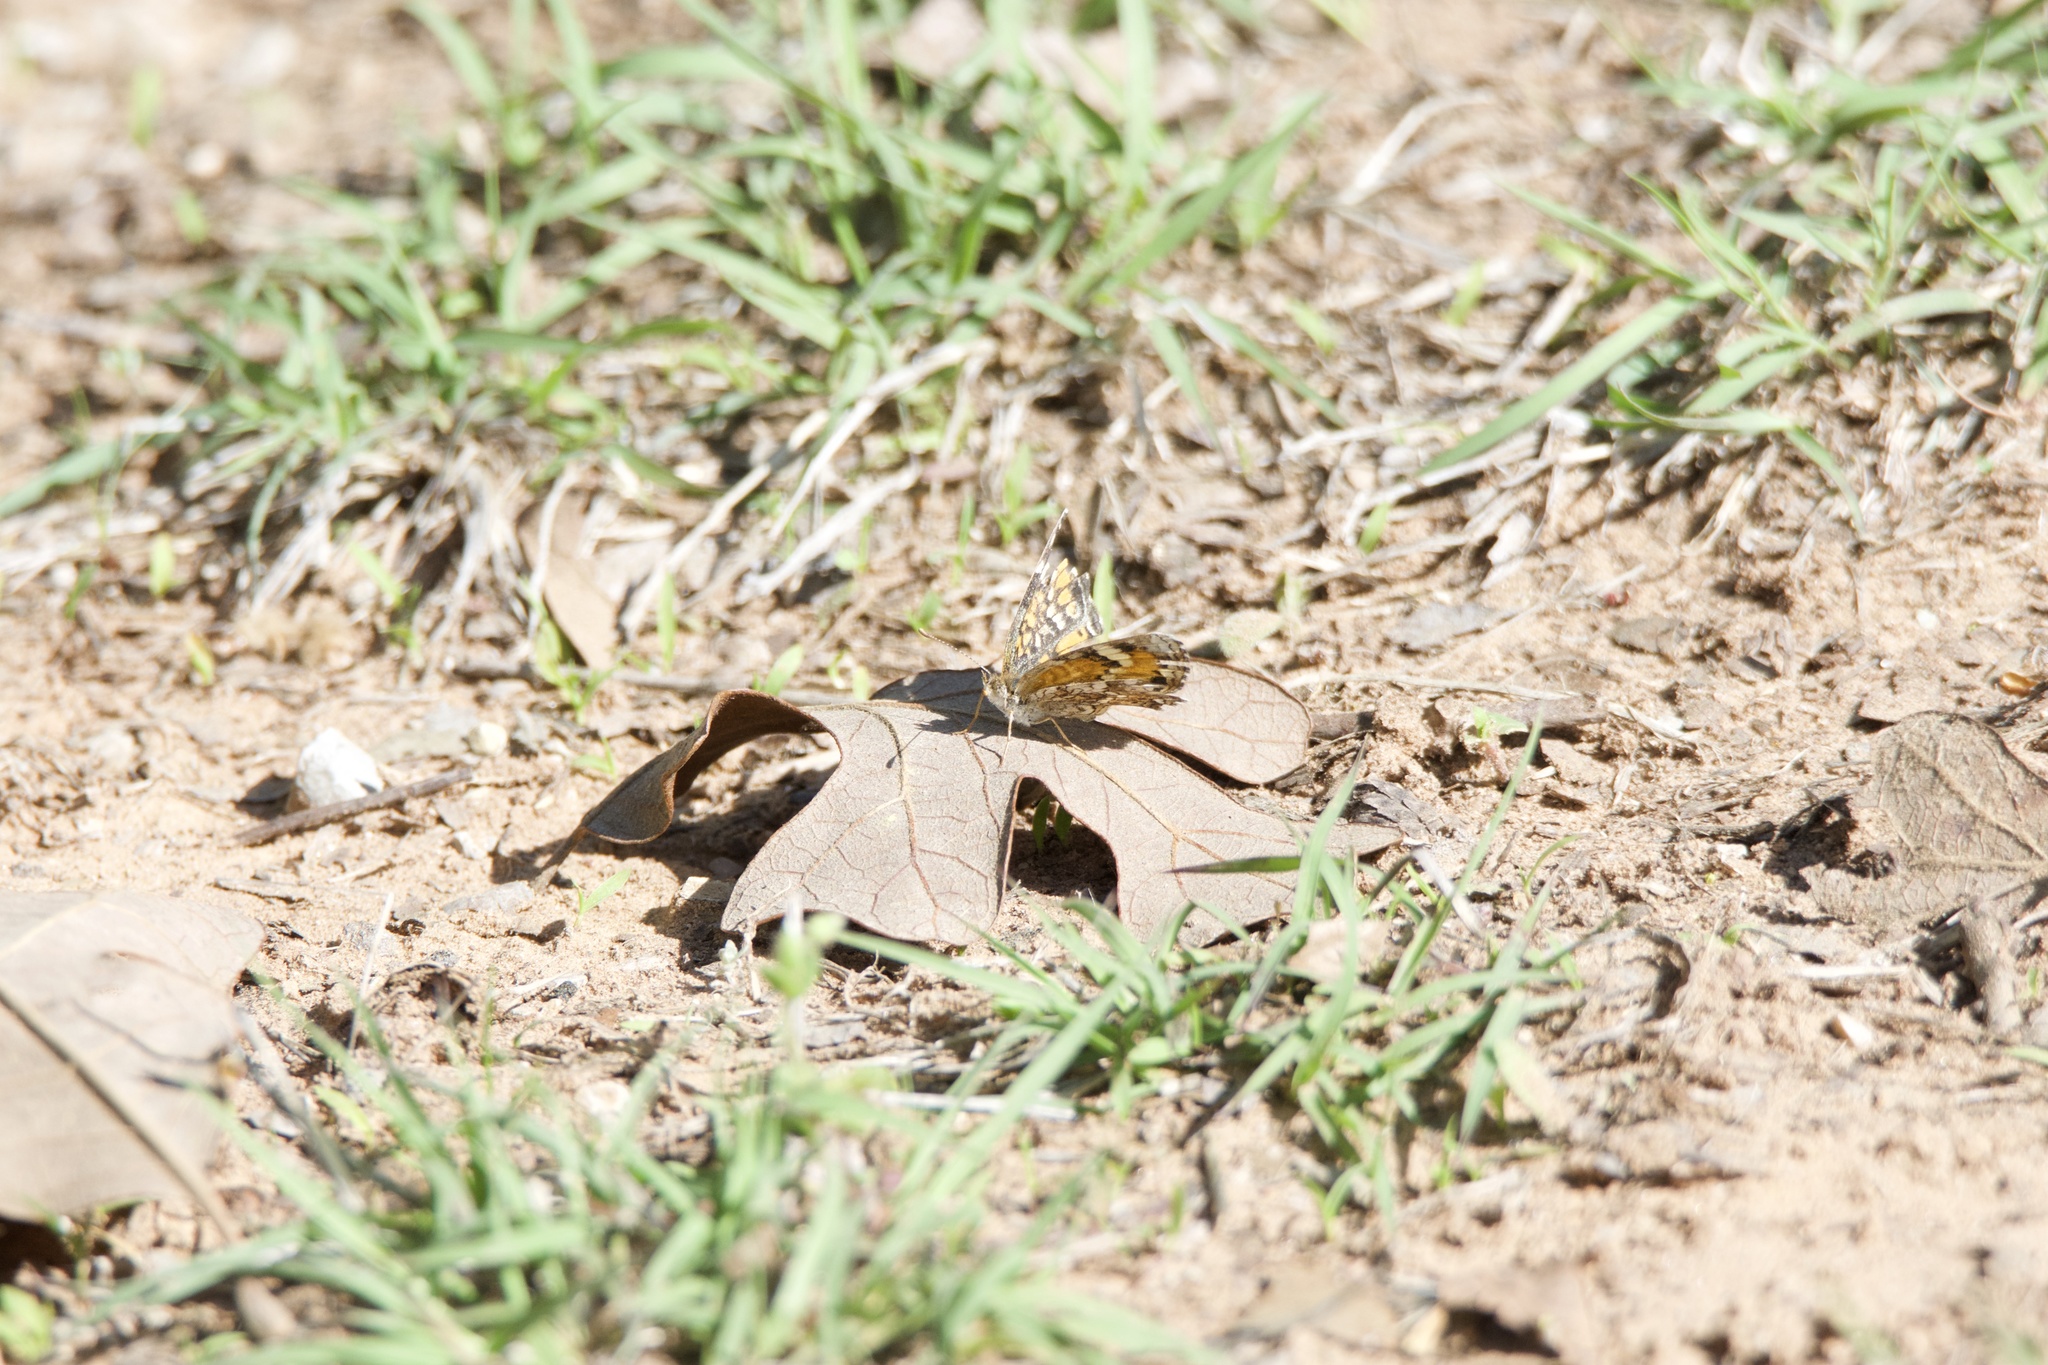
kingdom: Animalia
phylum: Arthropoda
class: Insecta
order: Lepidoptera
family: Nymphalidae
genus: Phyciodes
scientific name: Phyciodes phaon
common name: Phaon crescent
